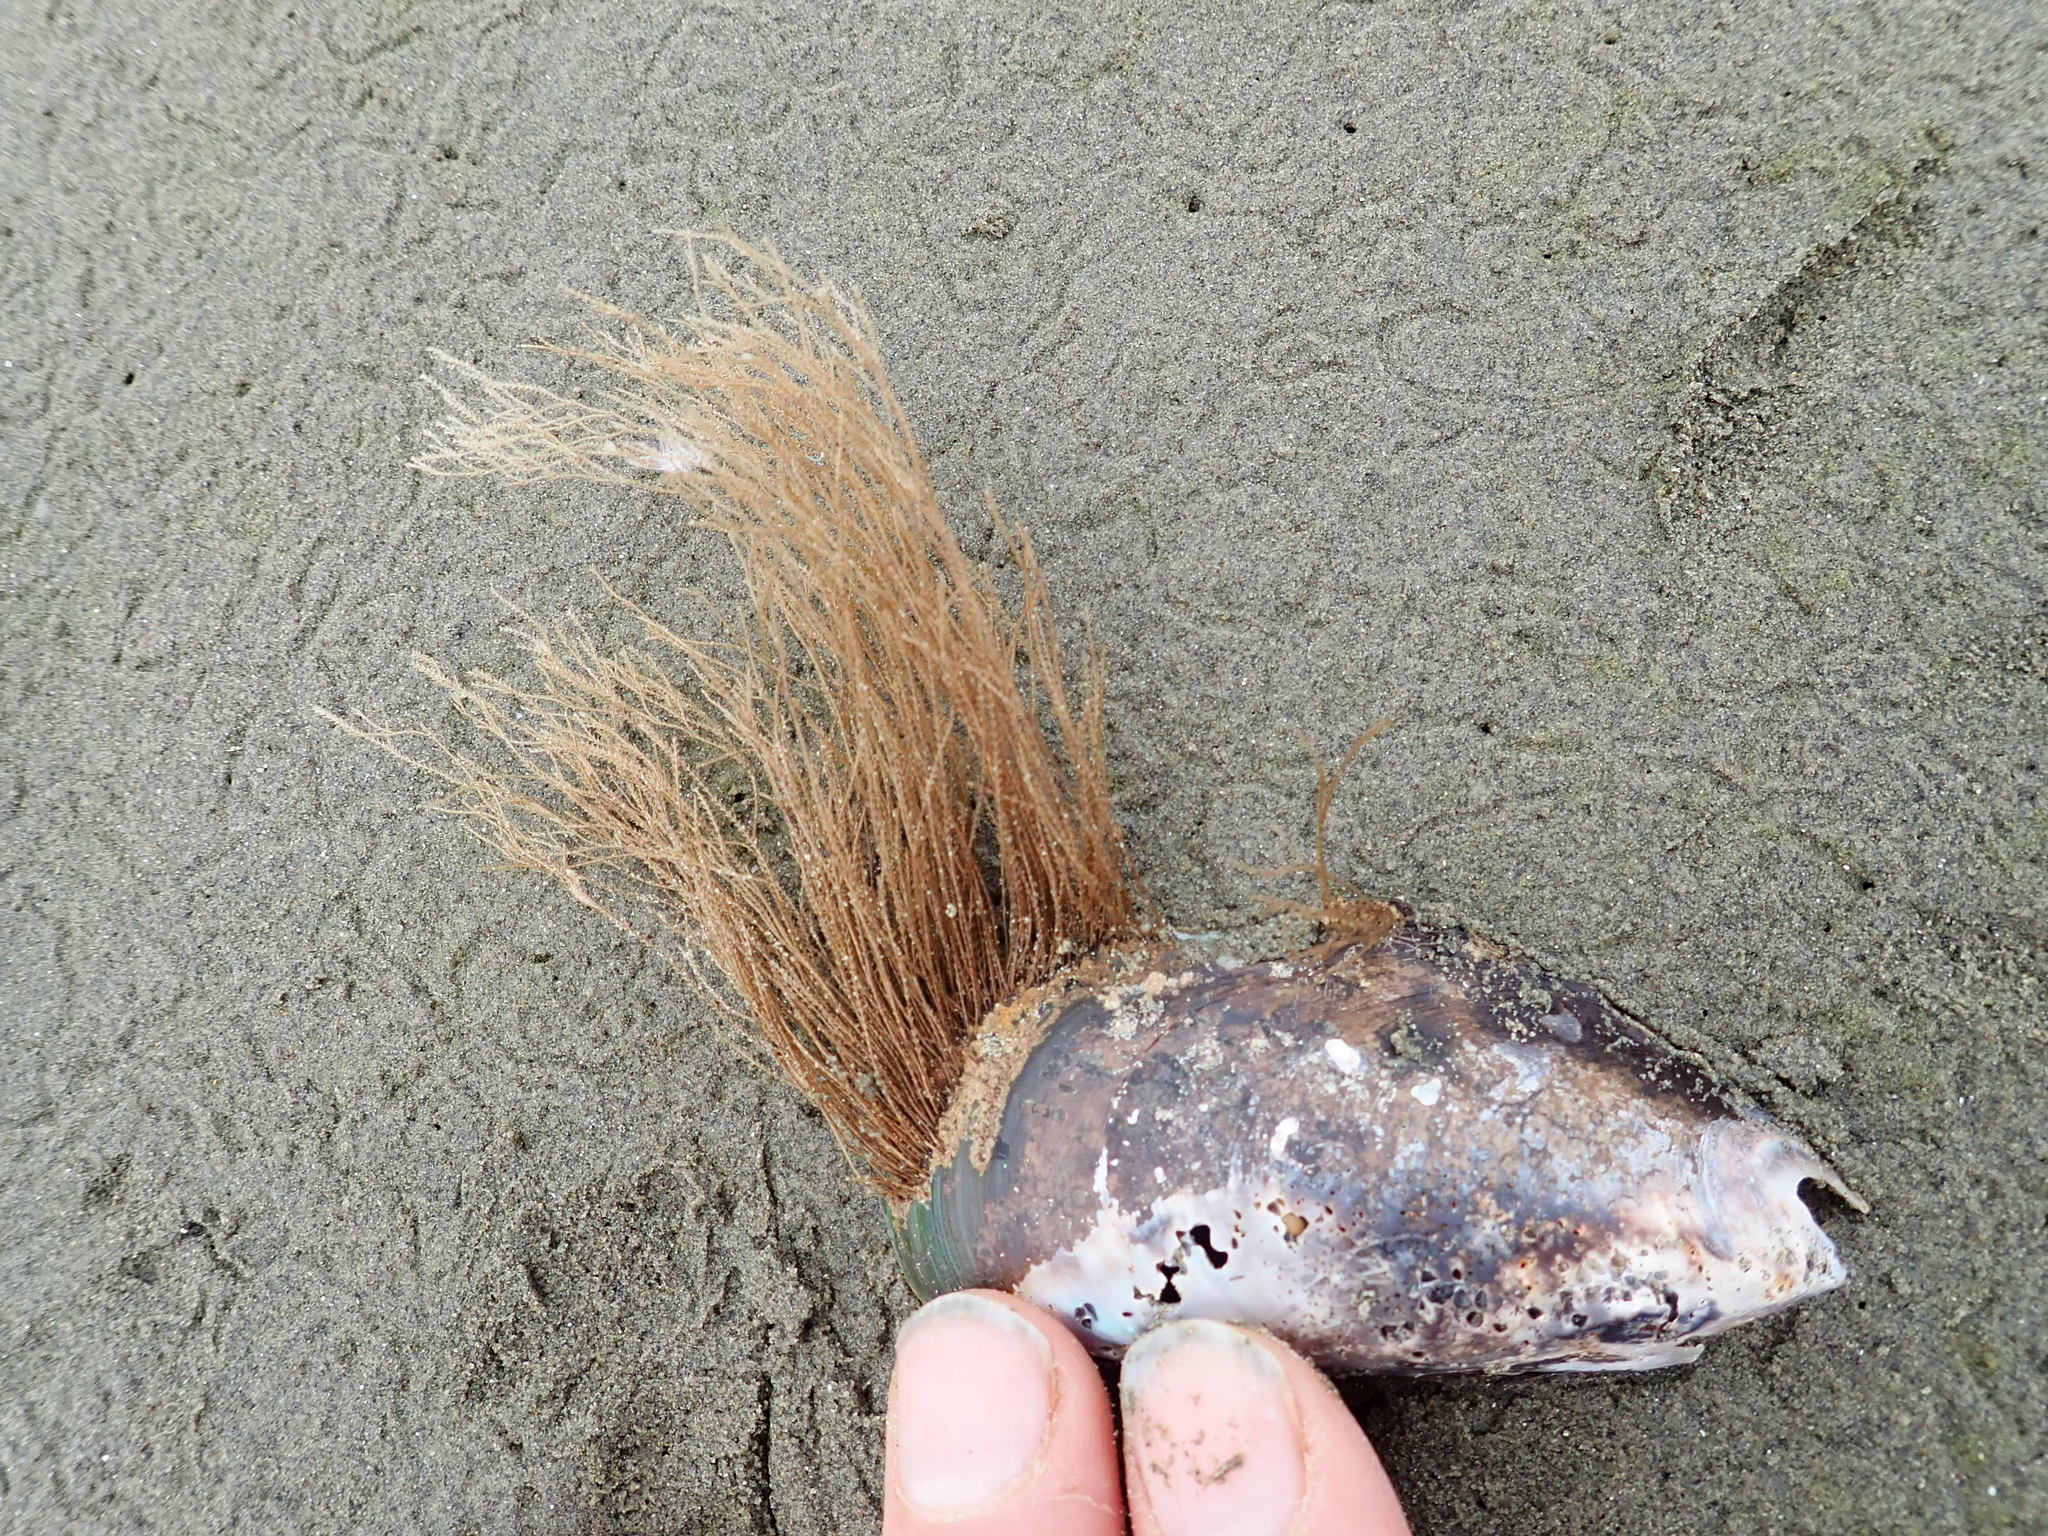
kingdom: Animalia
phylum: Cnidaria
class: Hydrozoa
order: Leptothecata
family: Sertulariidae
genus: Amphisbetia
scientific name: Amphisbetia bispinosa
